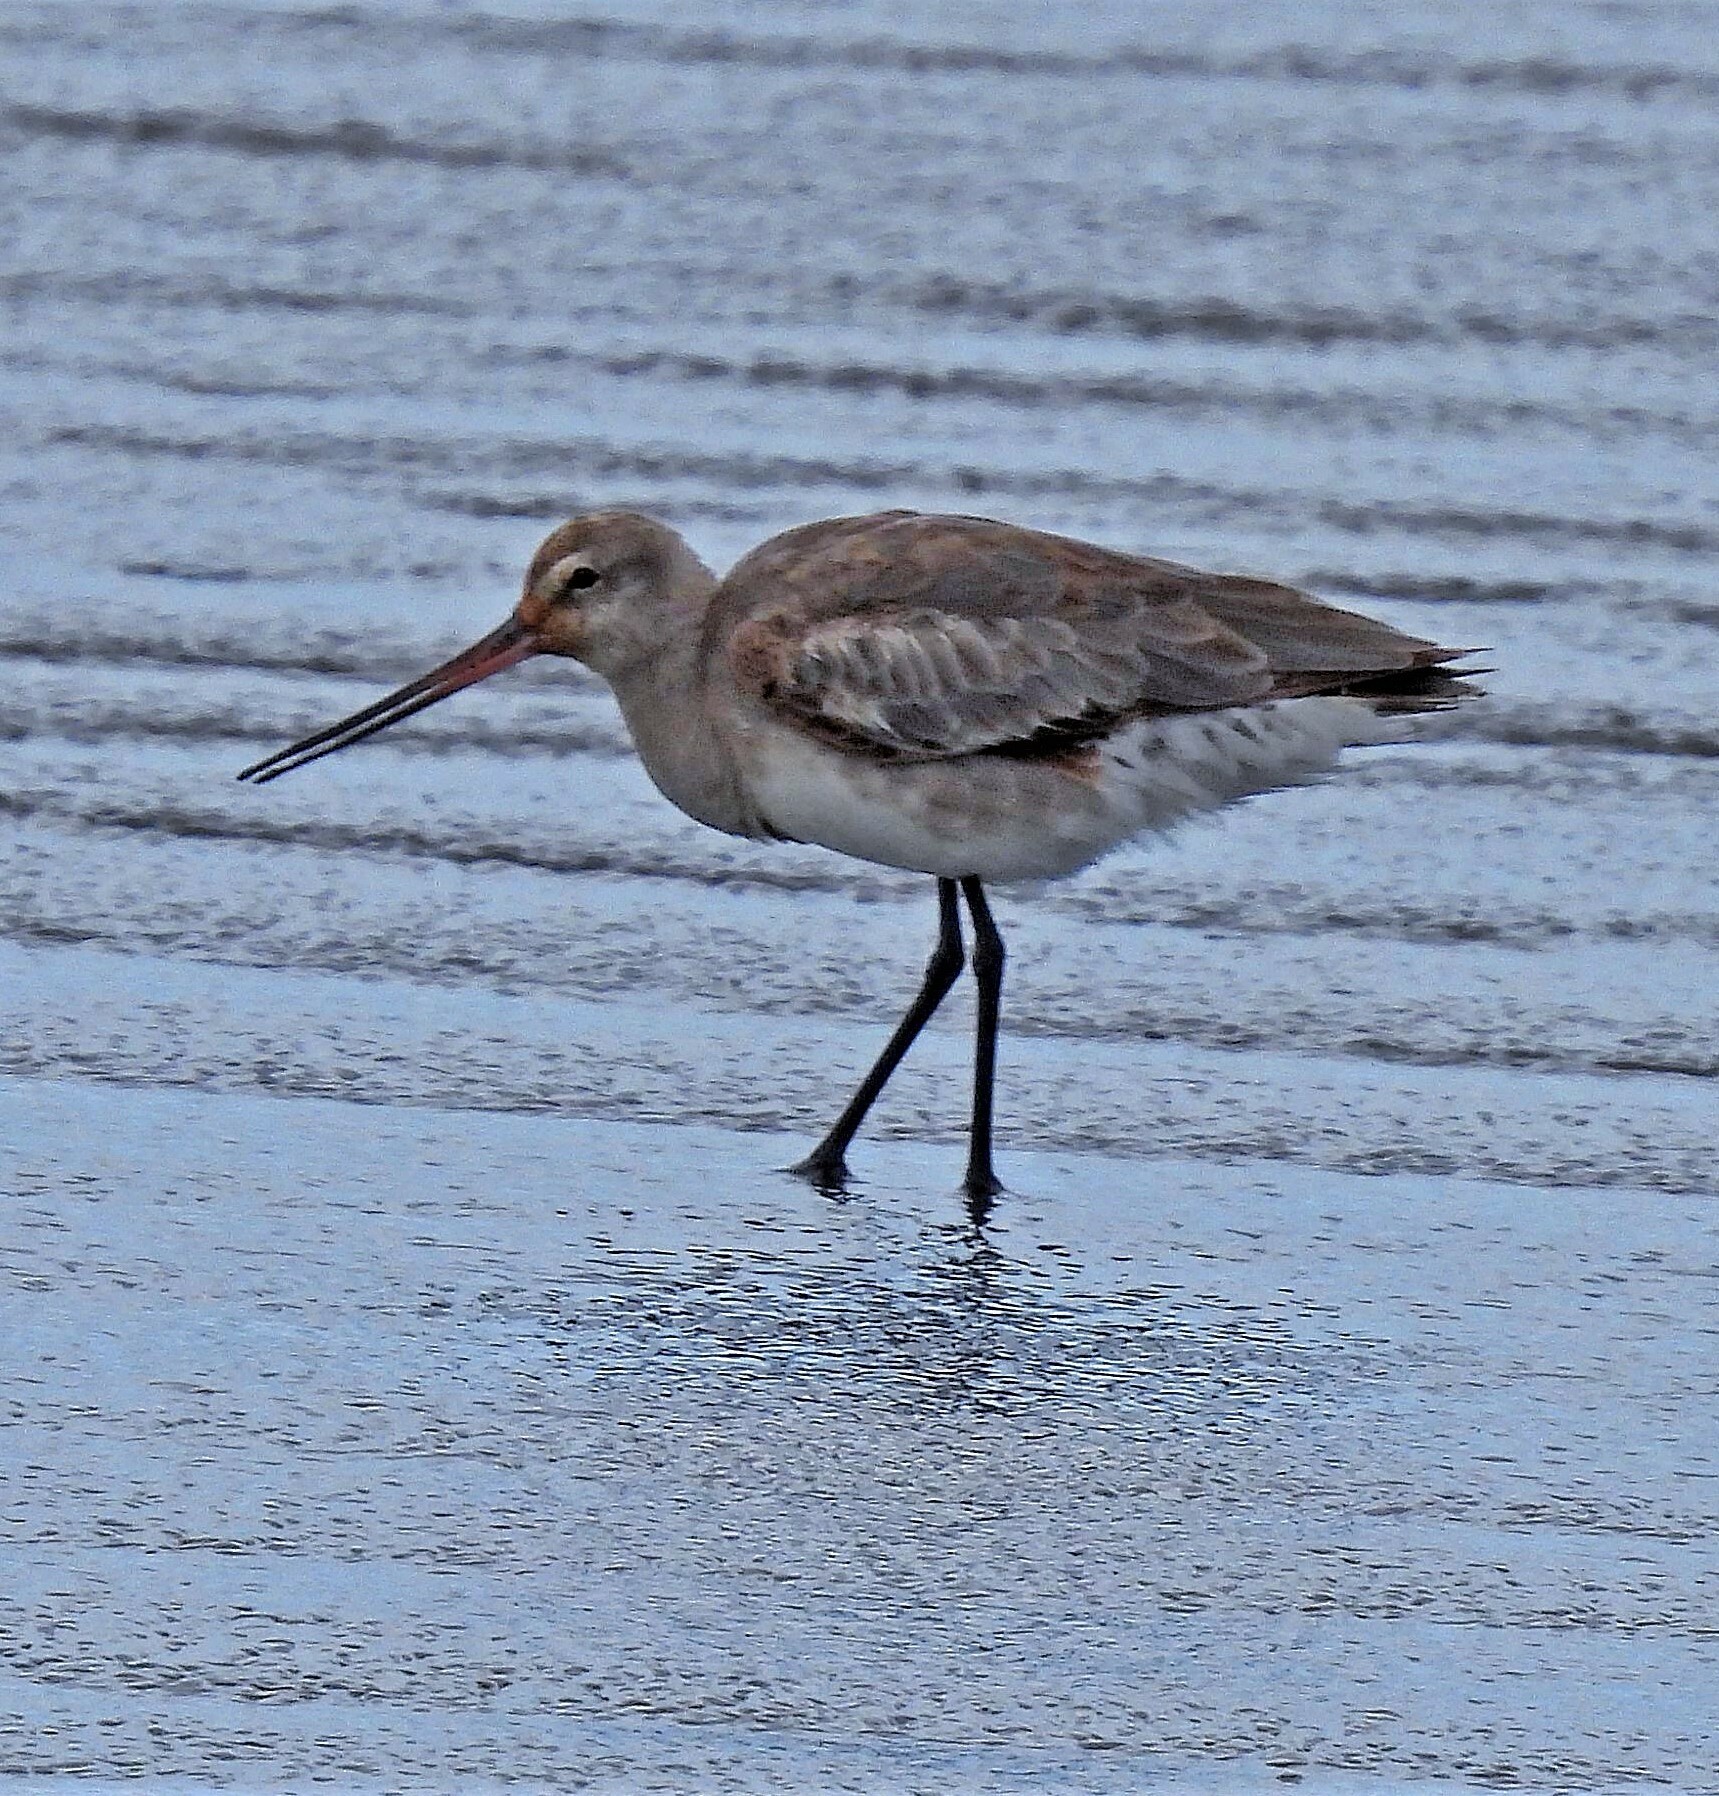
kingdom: Animalia
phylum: Chordata
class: Aves
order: Charadriiformes
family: Scolopacidae
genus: Limosa
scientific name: Limosa haemastica
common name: Hudsonian godwit
